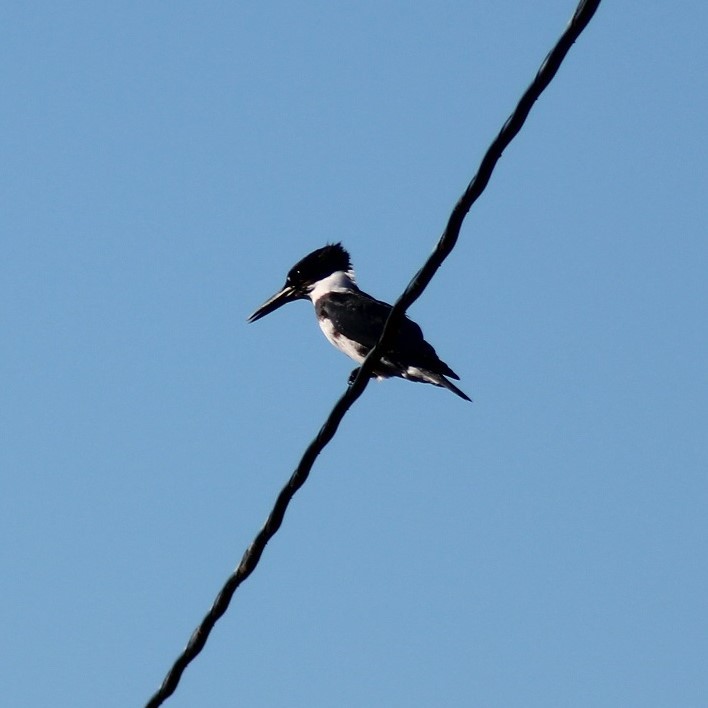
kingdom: Animalia
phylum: Chordata
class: Aves
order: Coraciiformes
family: Alcedinidae
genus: Megaceryle
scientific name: Megaceryle alcyon
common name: Belted kingfisher
